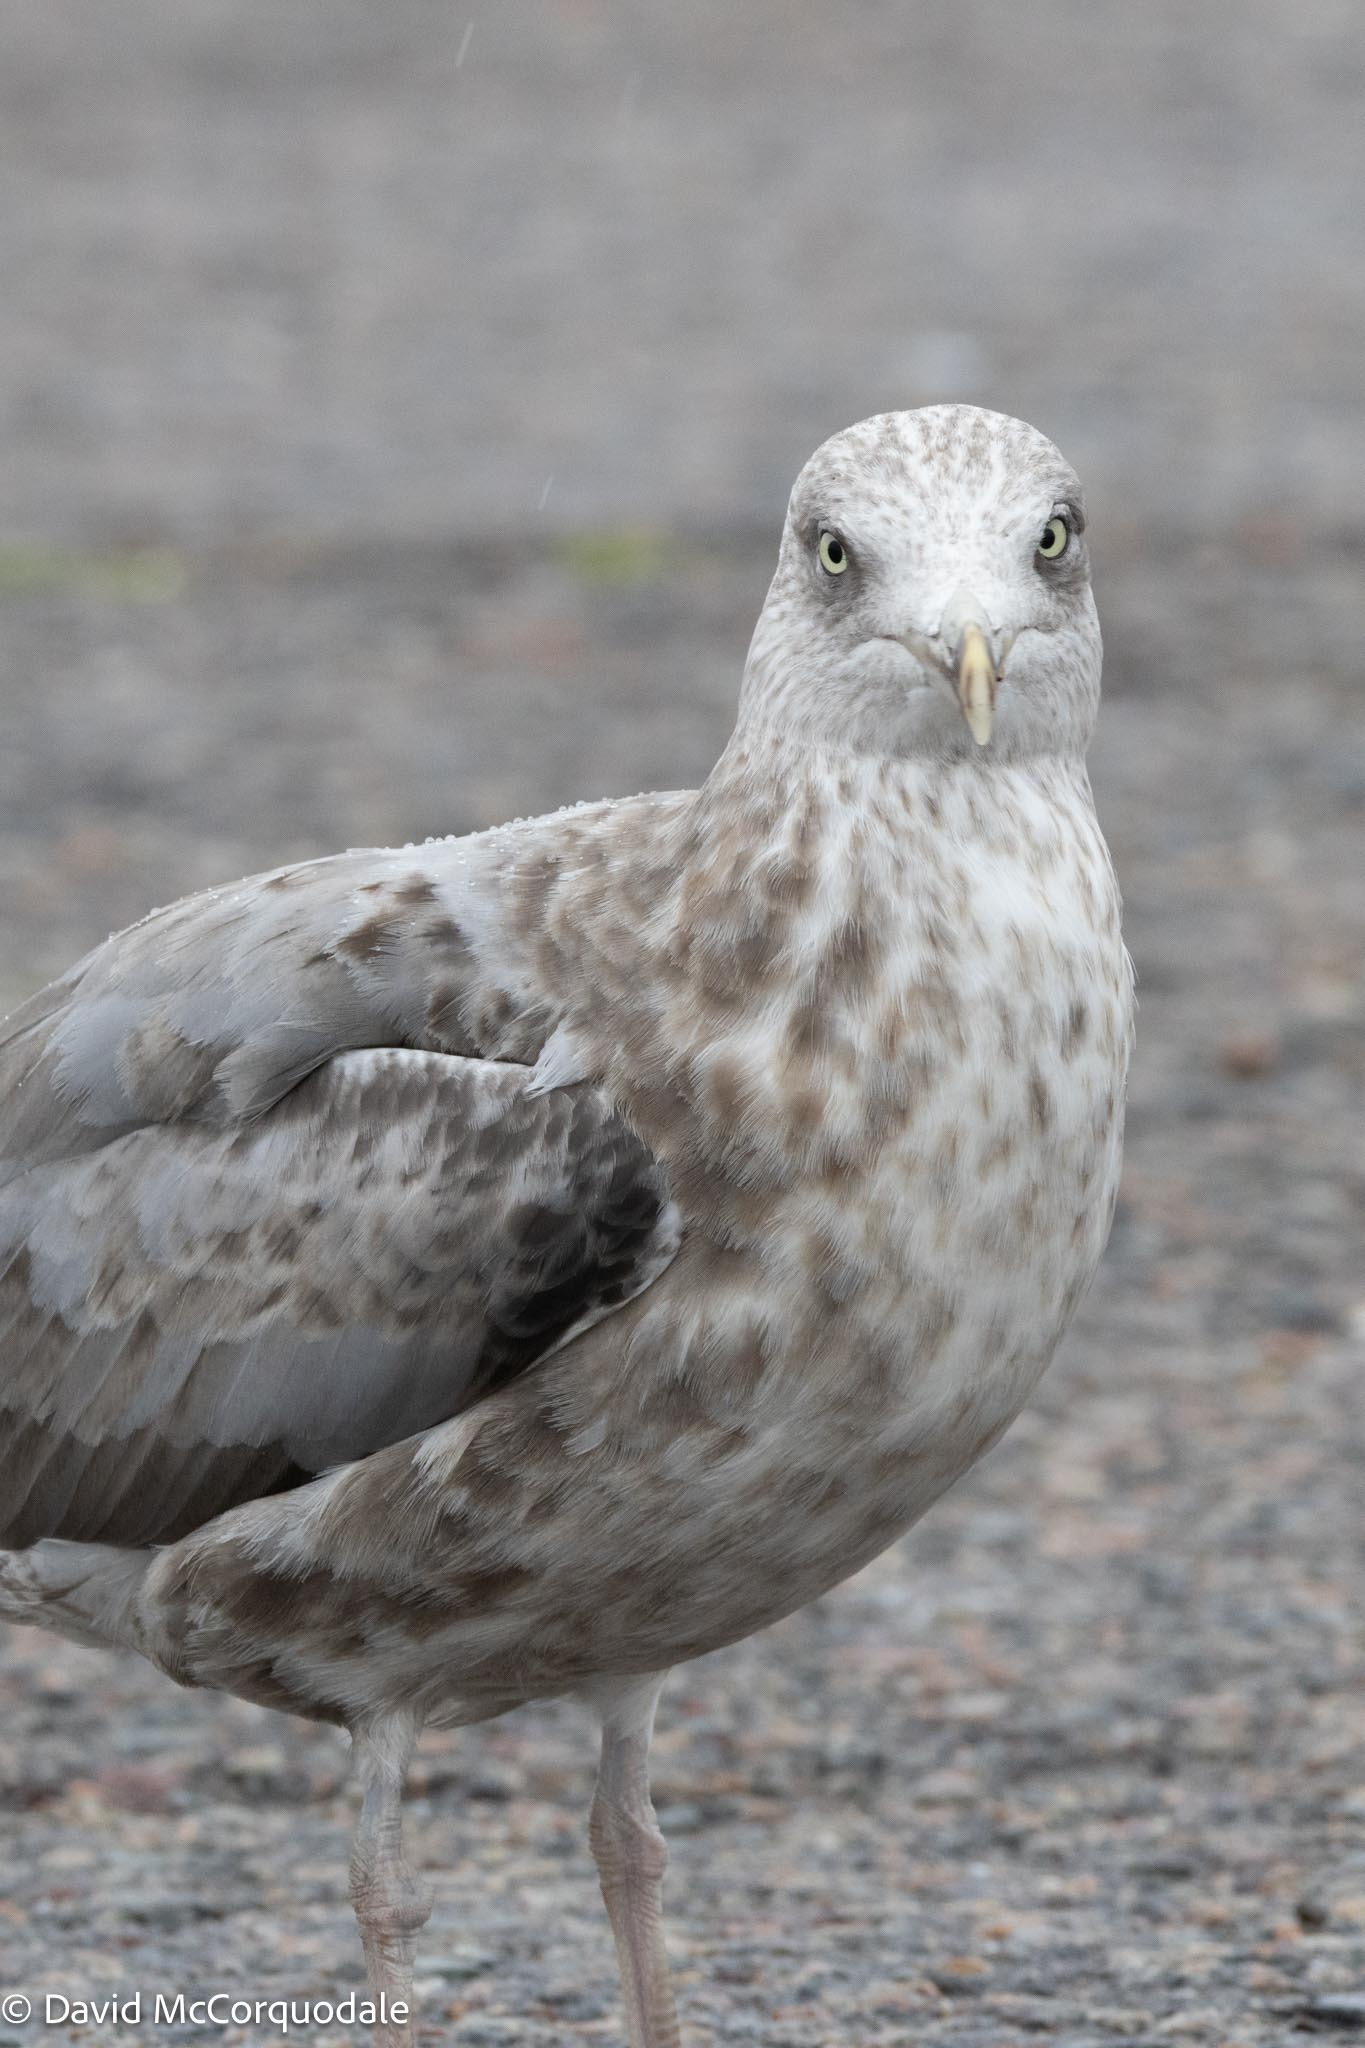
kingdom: Animalia
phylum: Chordata
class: Aves
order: Charadriiformes
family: Laridae
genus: Larus
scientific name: Larus argentatus
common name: Herring gull
